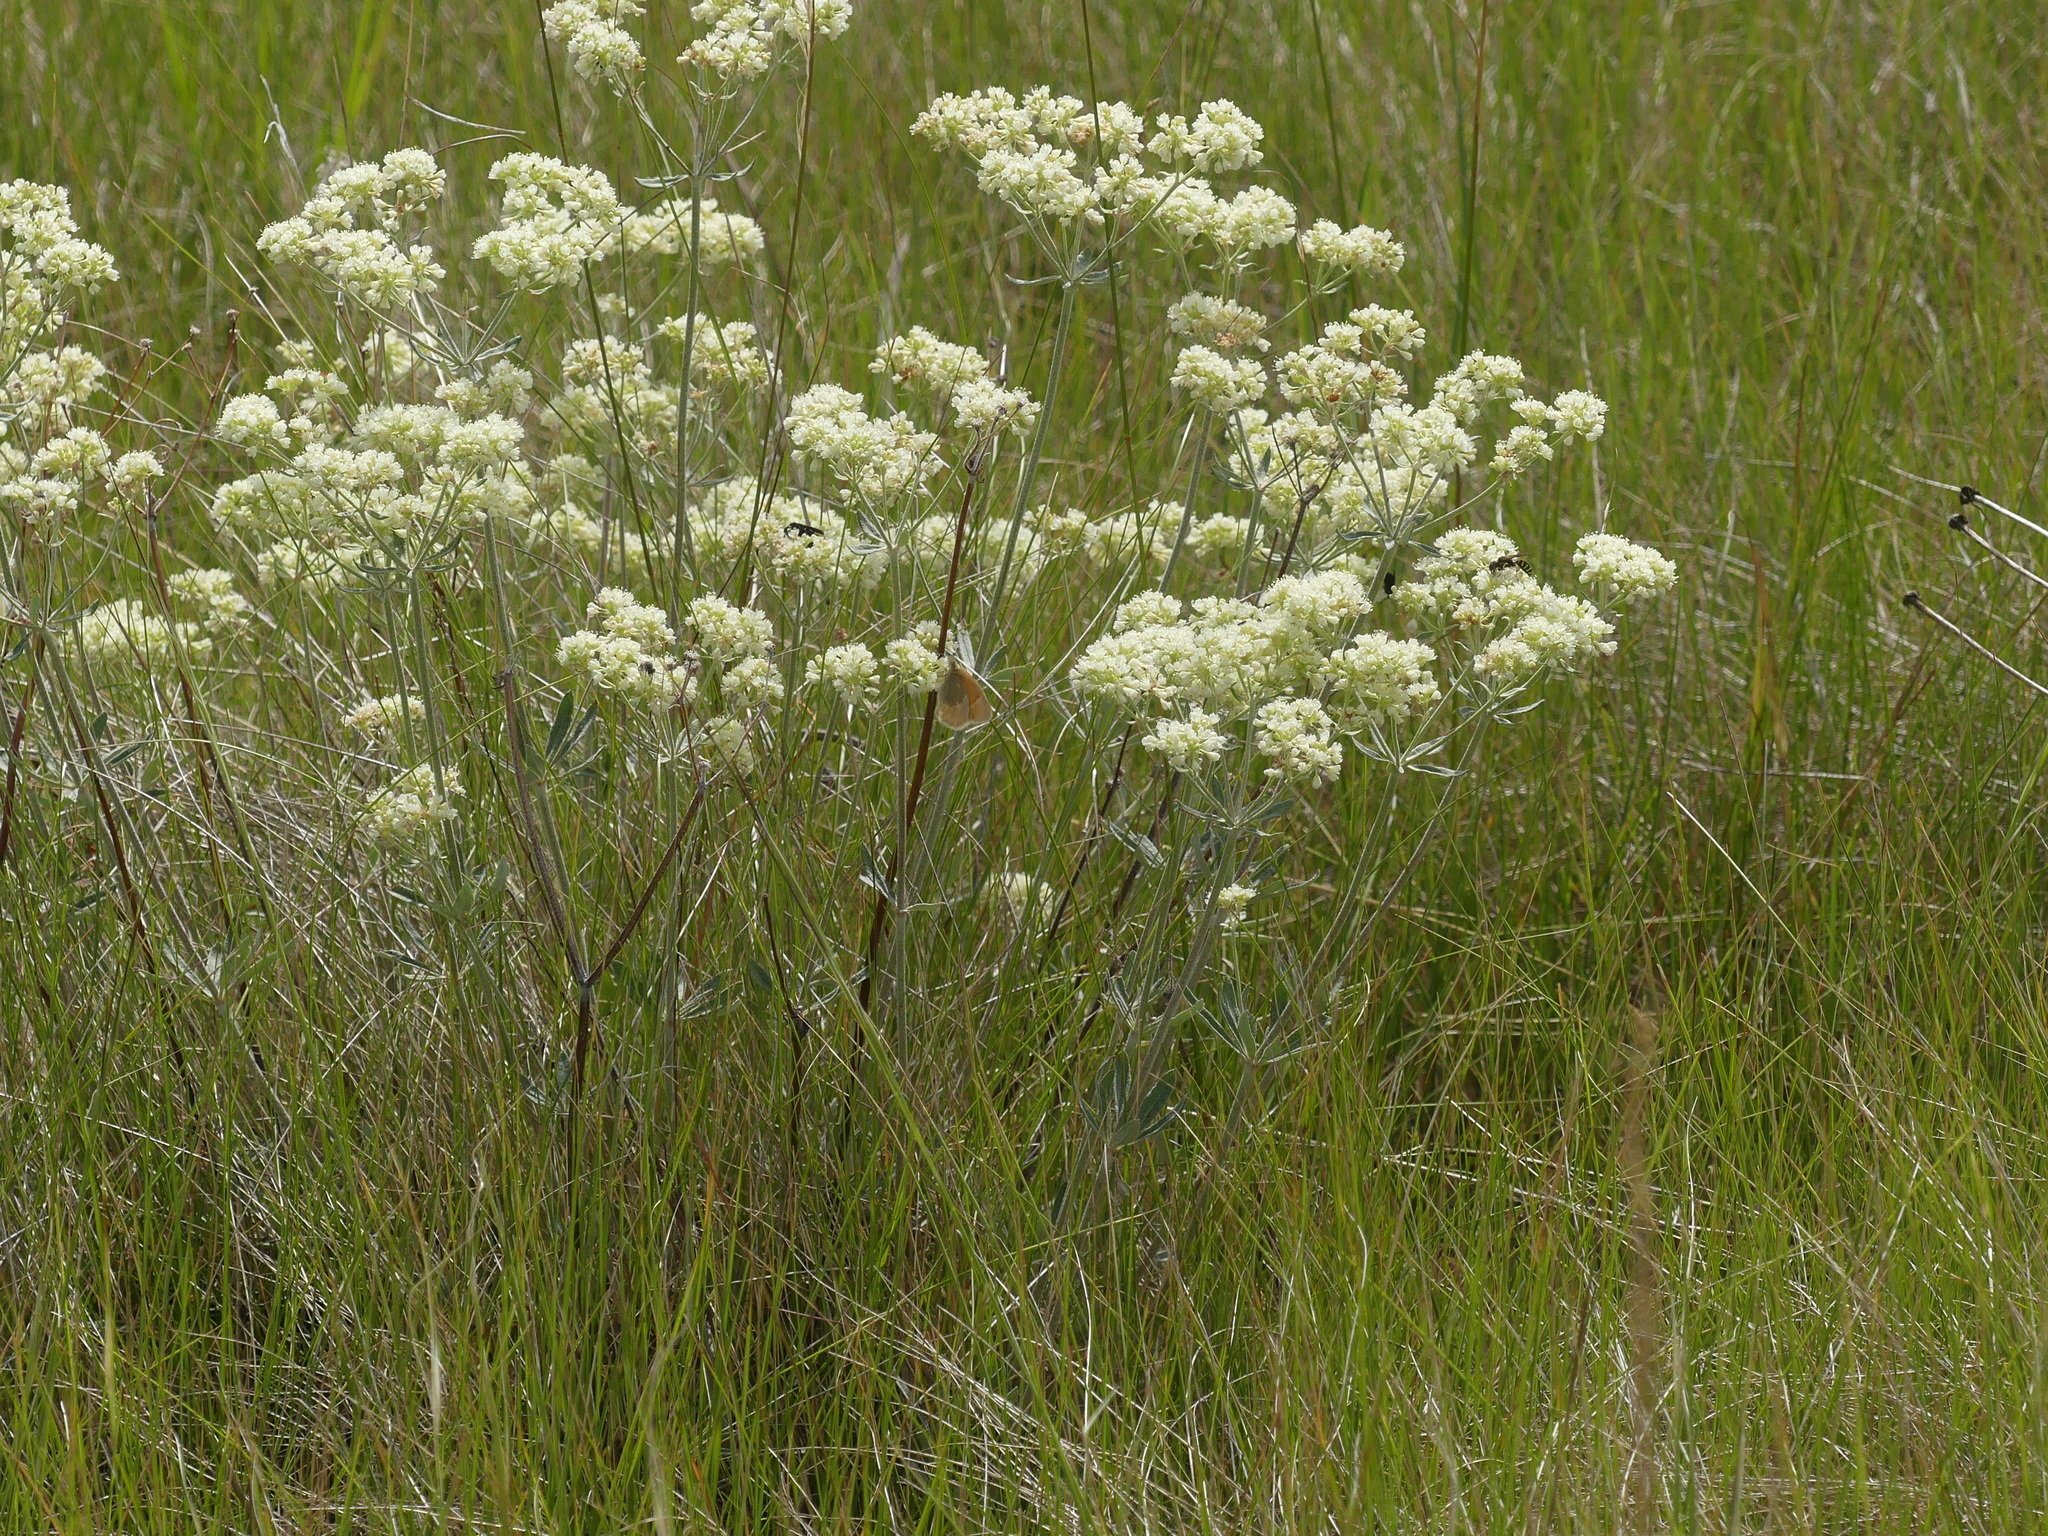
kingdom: Plantae
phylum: Tracheophyta
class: Magnoliopsida
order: Caryophyllales
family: Polygonaceae
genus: Eriogonum
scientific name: Eriogonum heracleoides
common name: Wyeth's buckwheat
